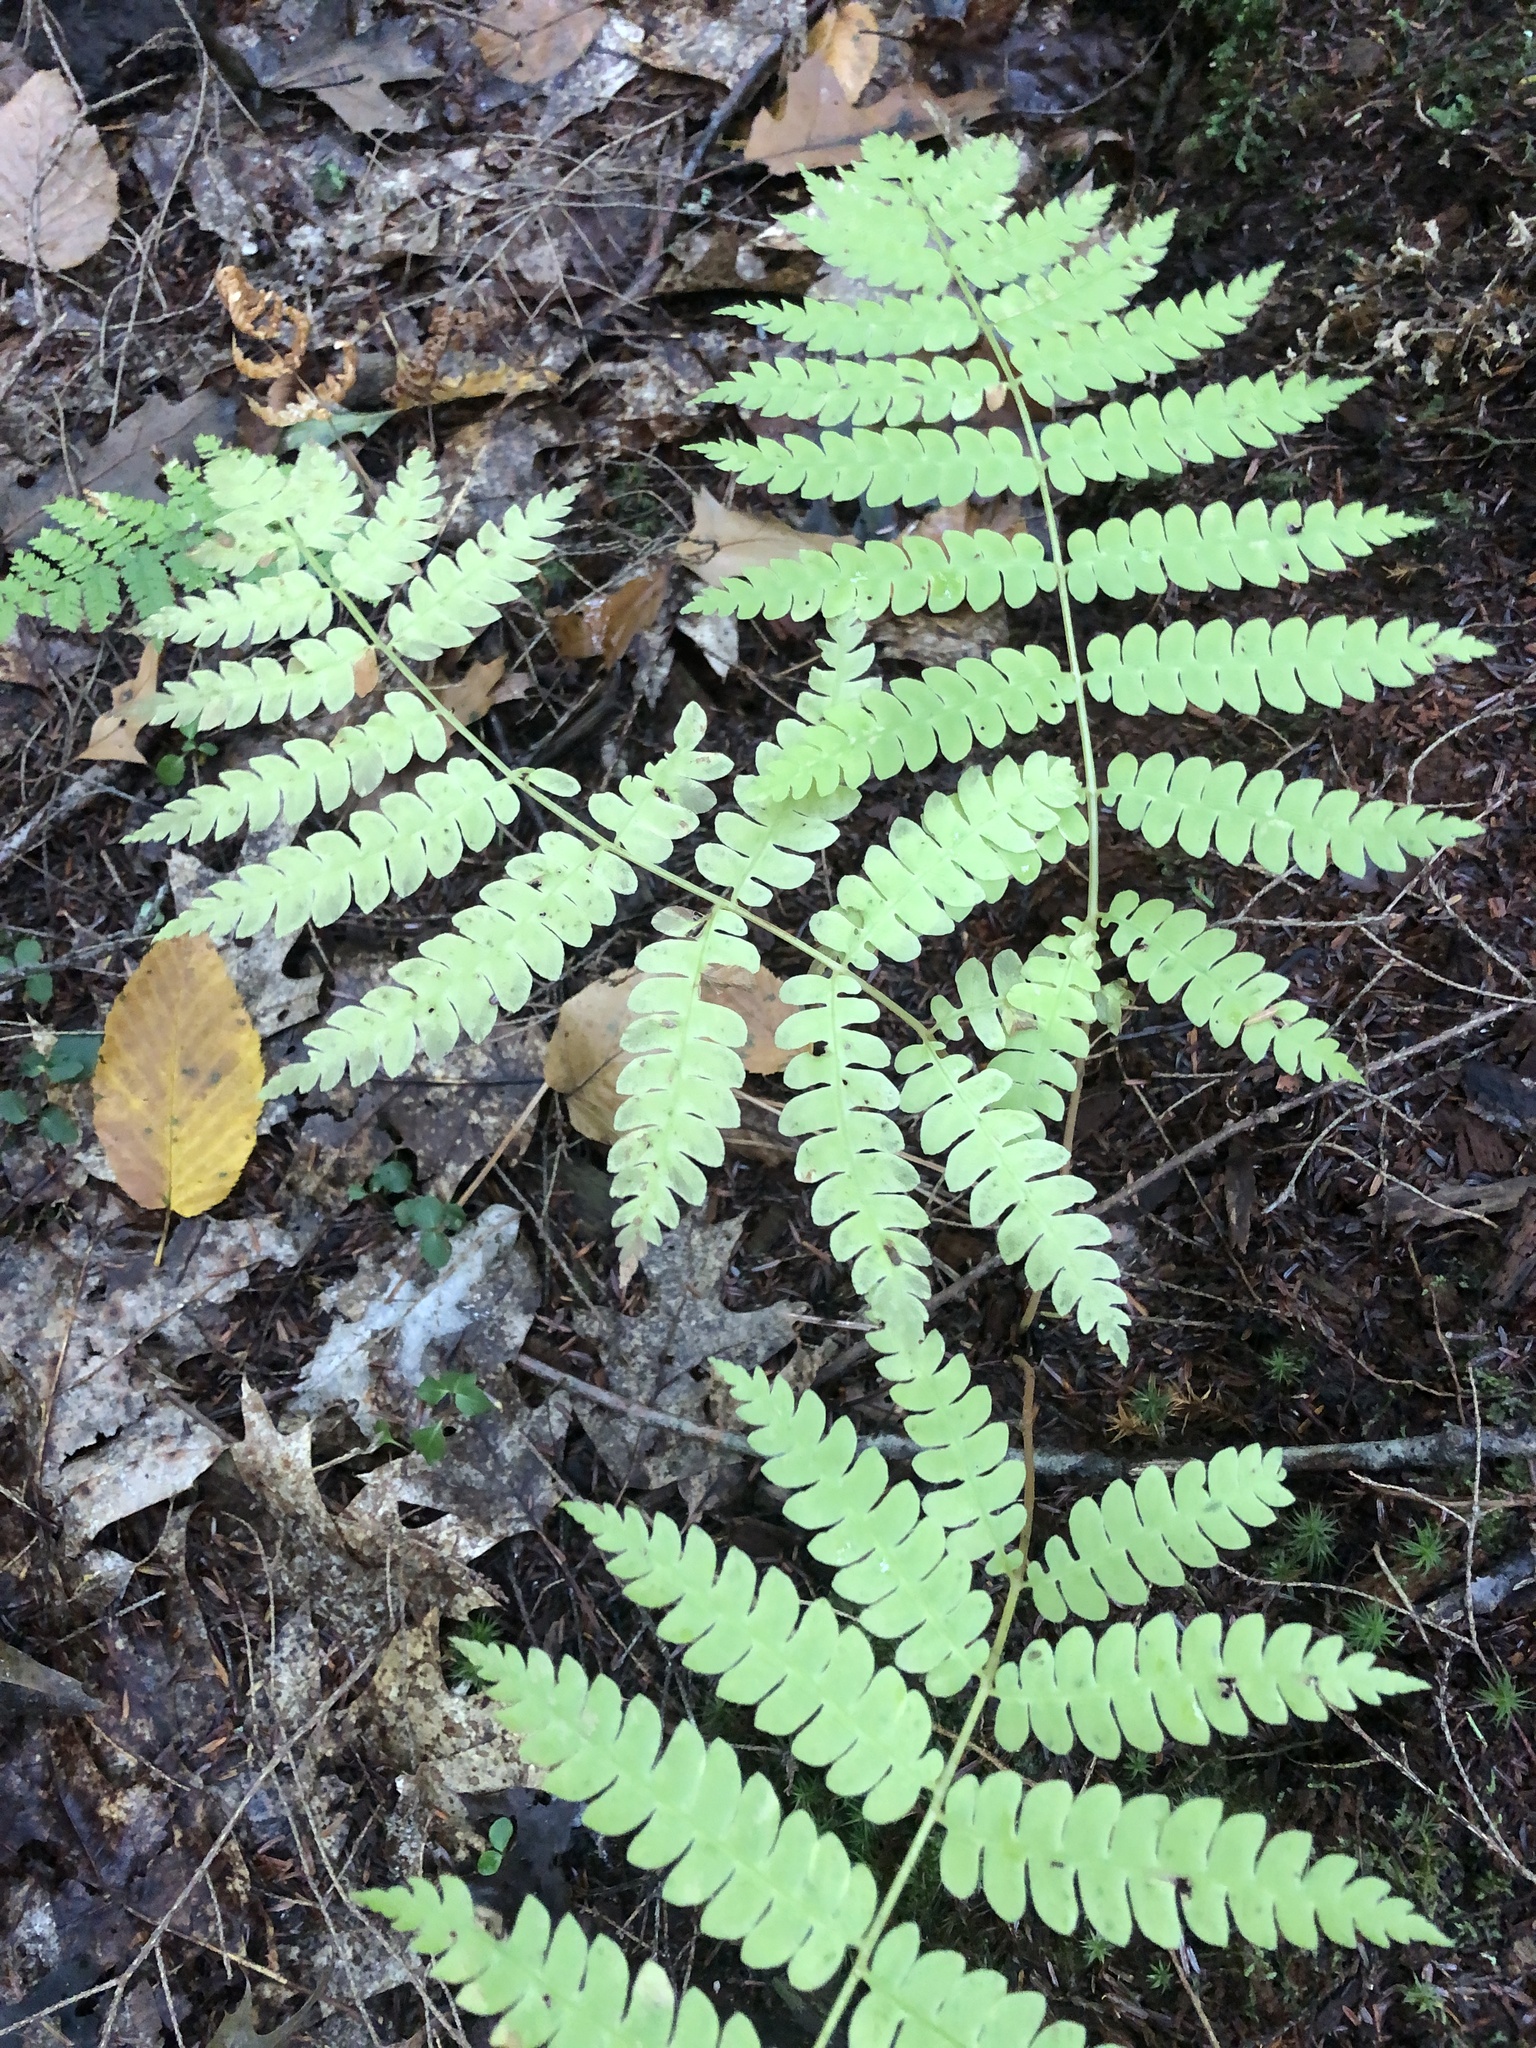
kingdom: Plantae
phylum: Tracheophyta
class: Polypodiopsida
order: Osmundales
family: Osmundaceae
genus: Osmundastrum
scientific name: Osmundastrum cinnamomeum
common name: Cinnamon fern
